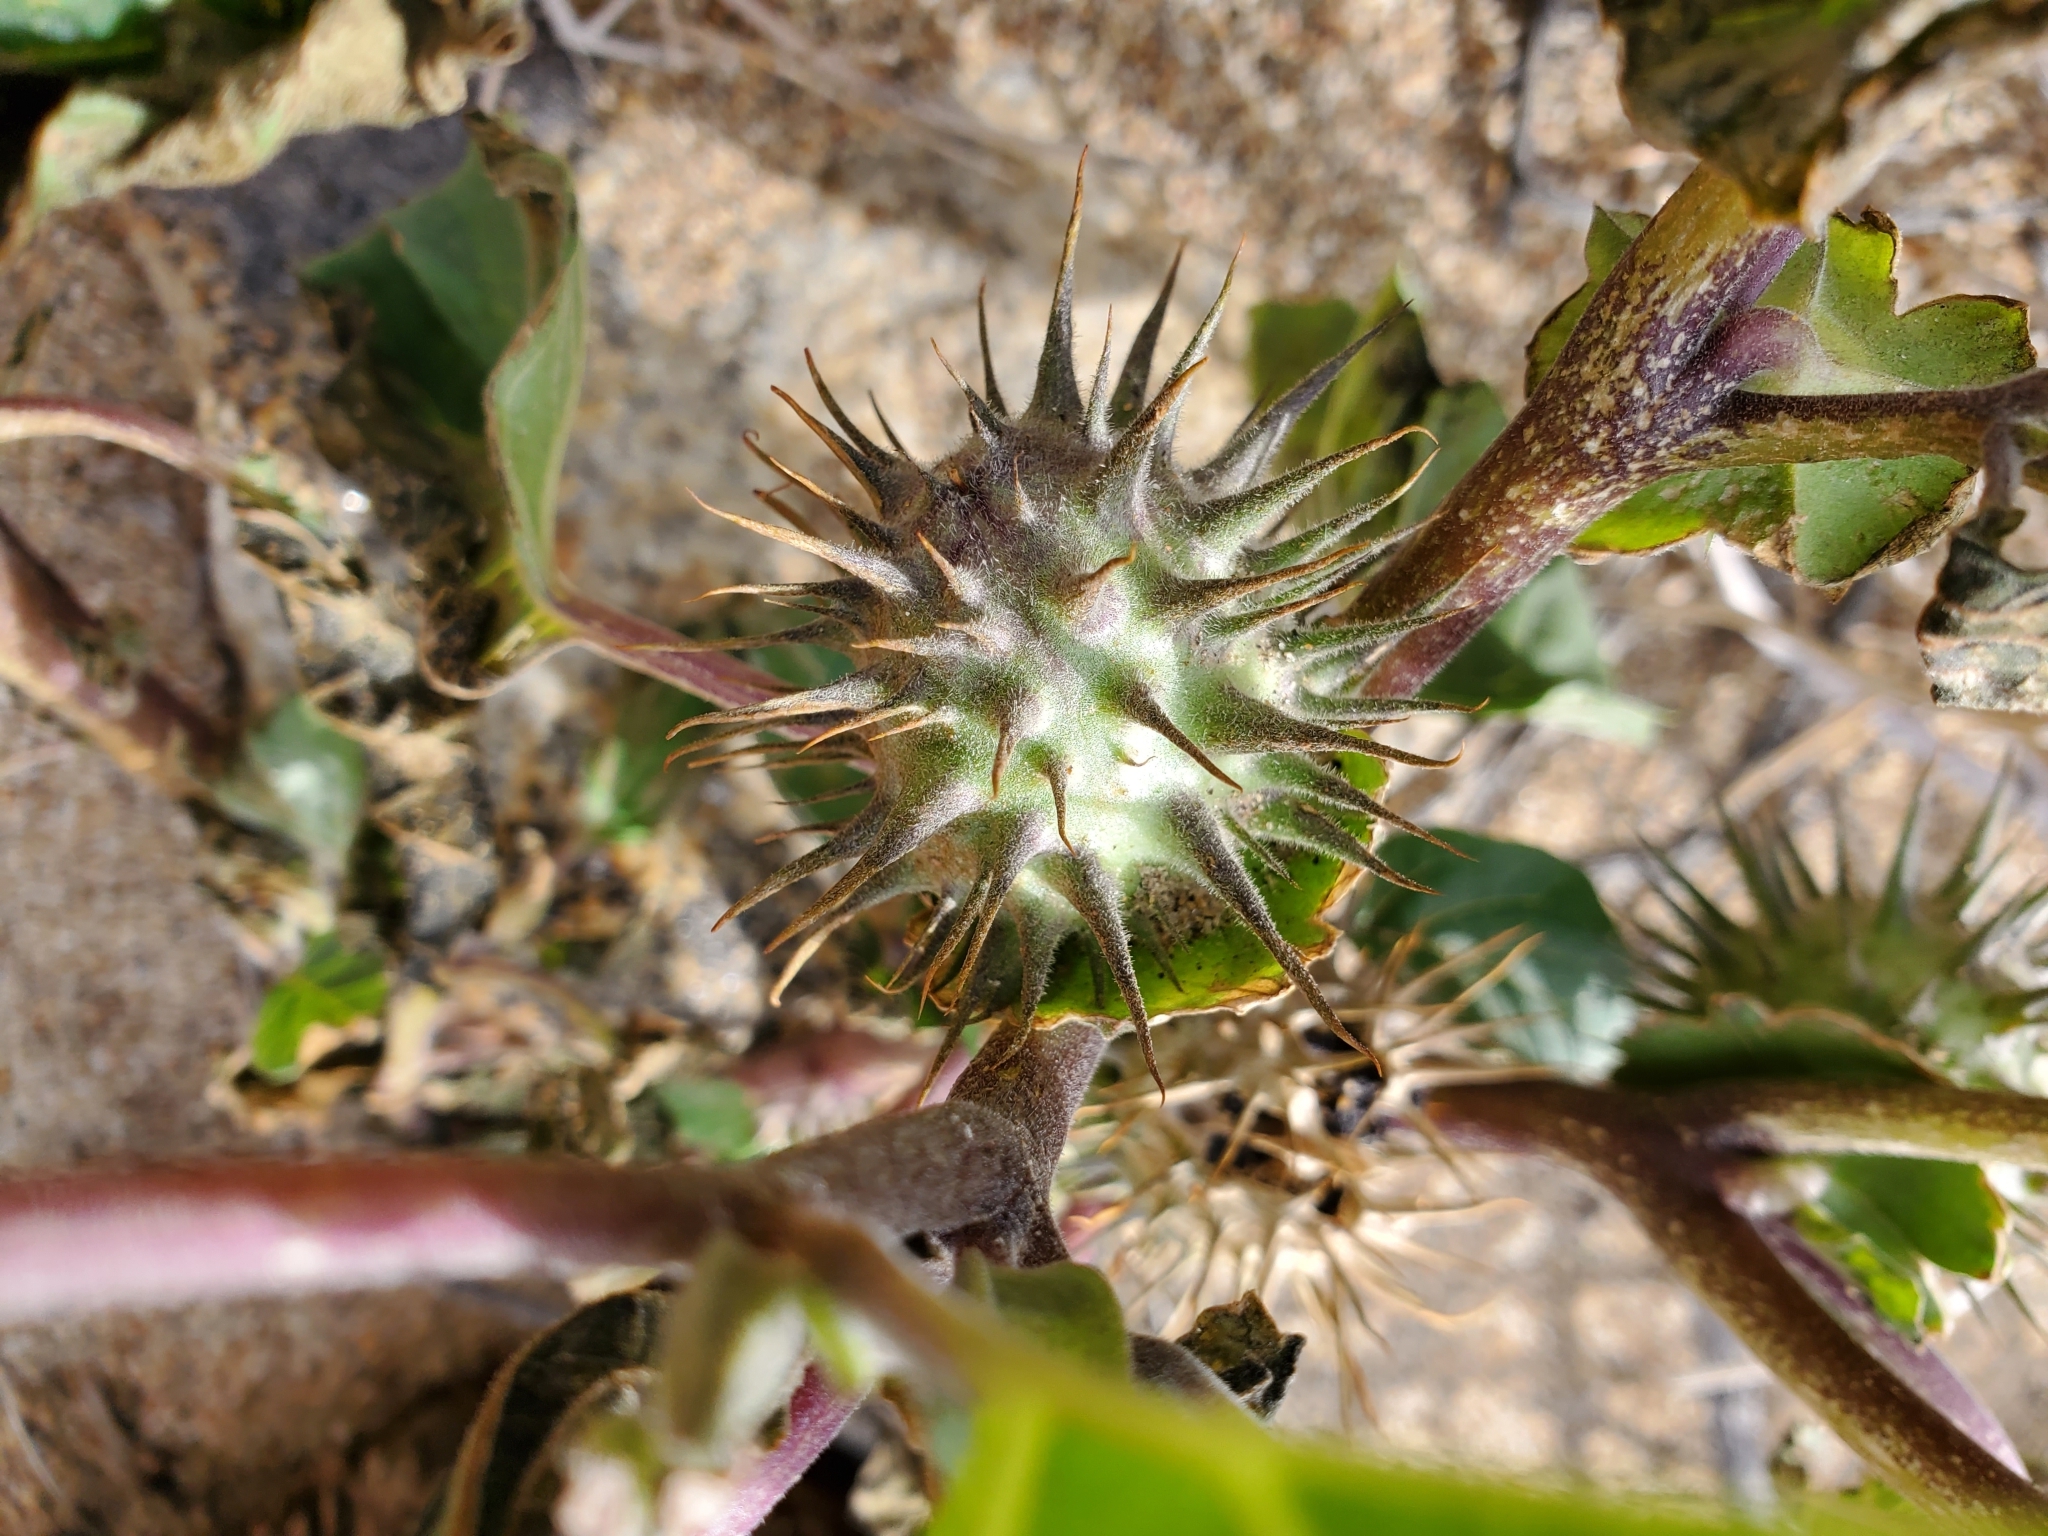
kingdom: Plantae
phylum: Tracheophyta
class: Magnoliopsida
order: Solanales
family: Solanaceae
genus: Datura
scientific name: Datura discolor
